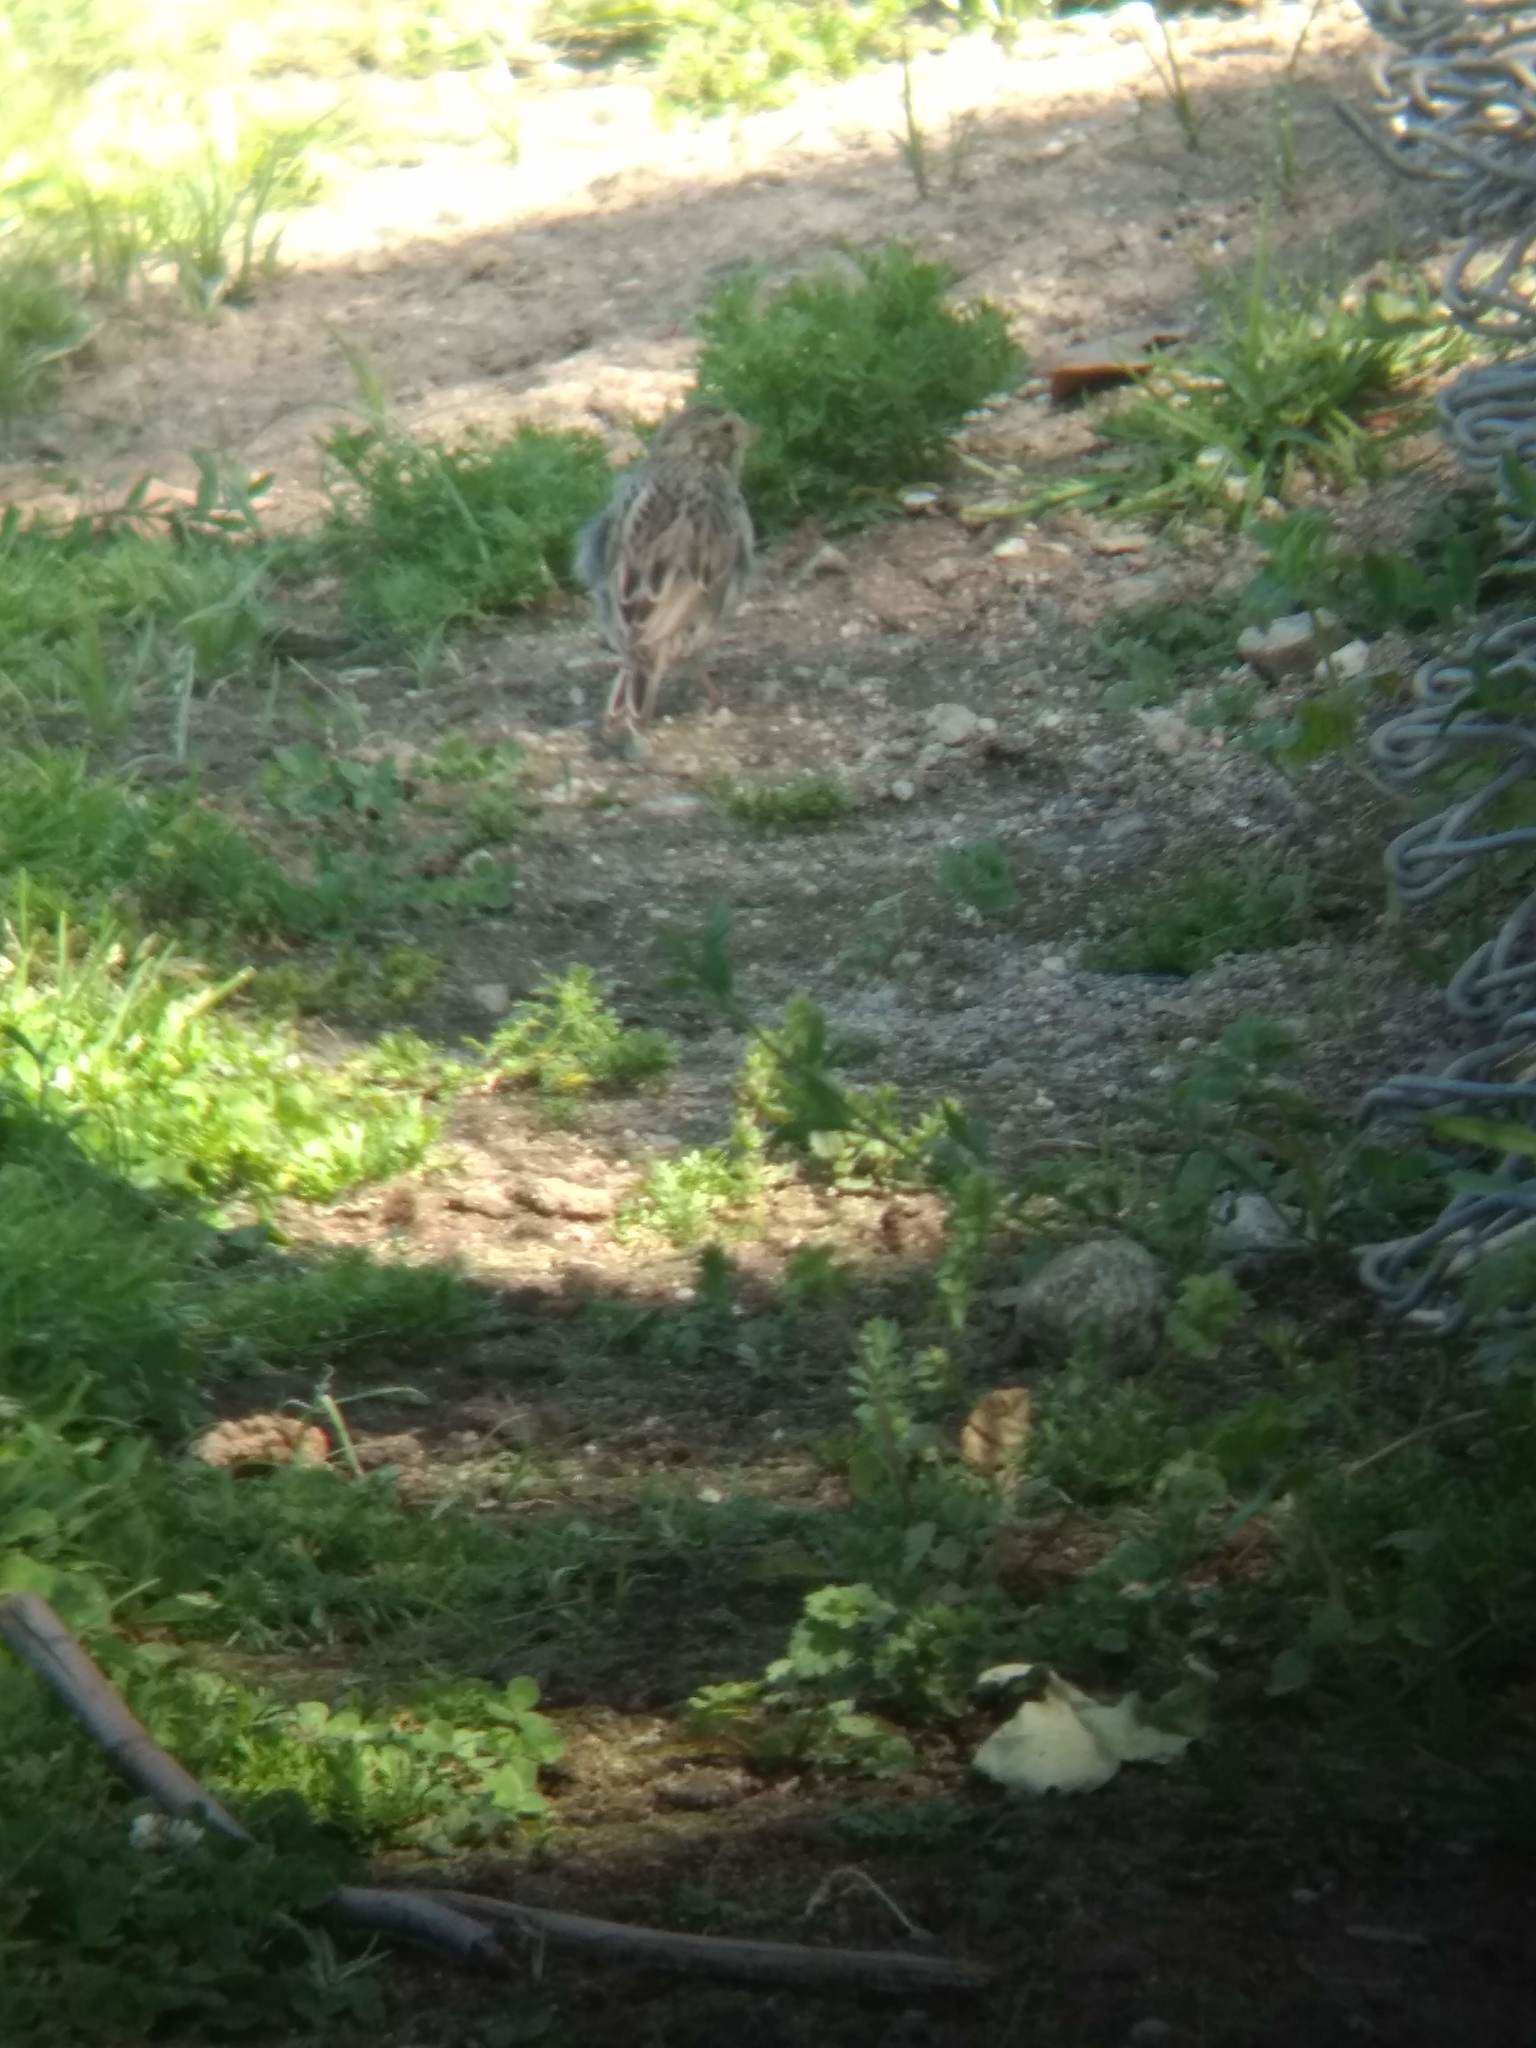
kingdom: Animalia
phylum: Chordata
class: Aves
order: Passeriformes
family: Passerellidae
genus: Passerculus
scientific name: Passerculus sandwichensis
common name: Savannah sparrow
